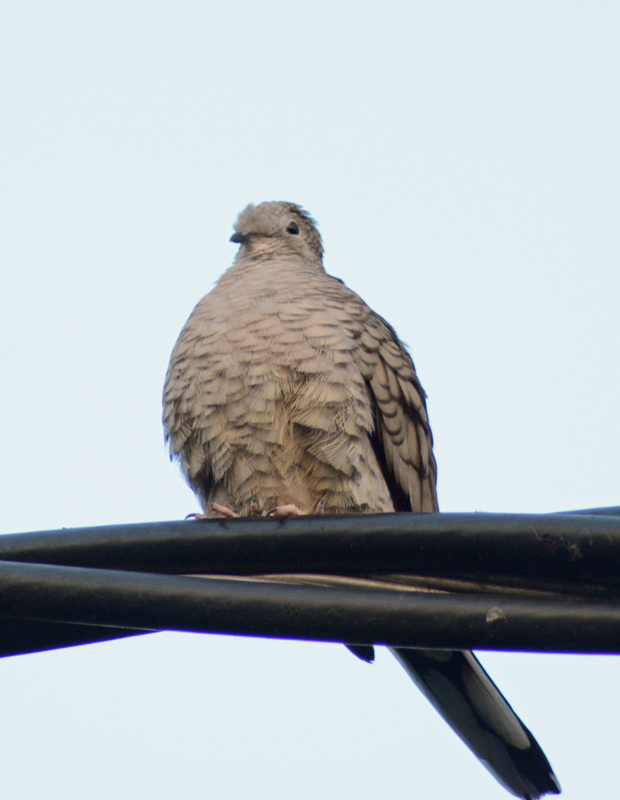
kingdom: Animalia
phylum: Chordata
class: Aves
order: Columbiformes
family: Columbidae
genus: Columbina
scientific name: Columbina inca
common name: Inca dove
